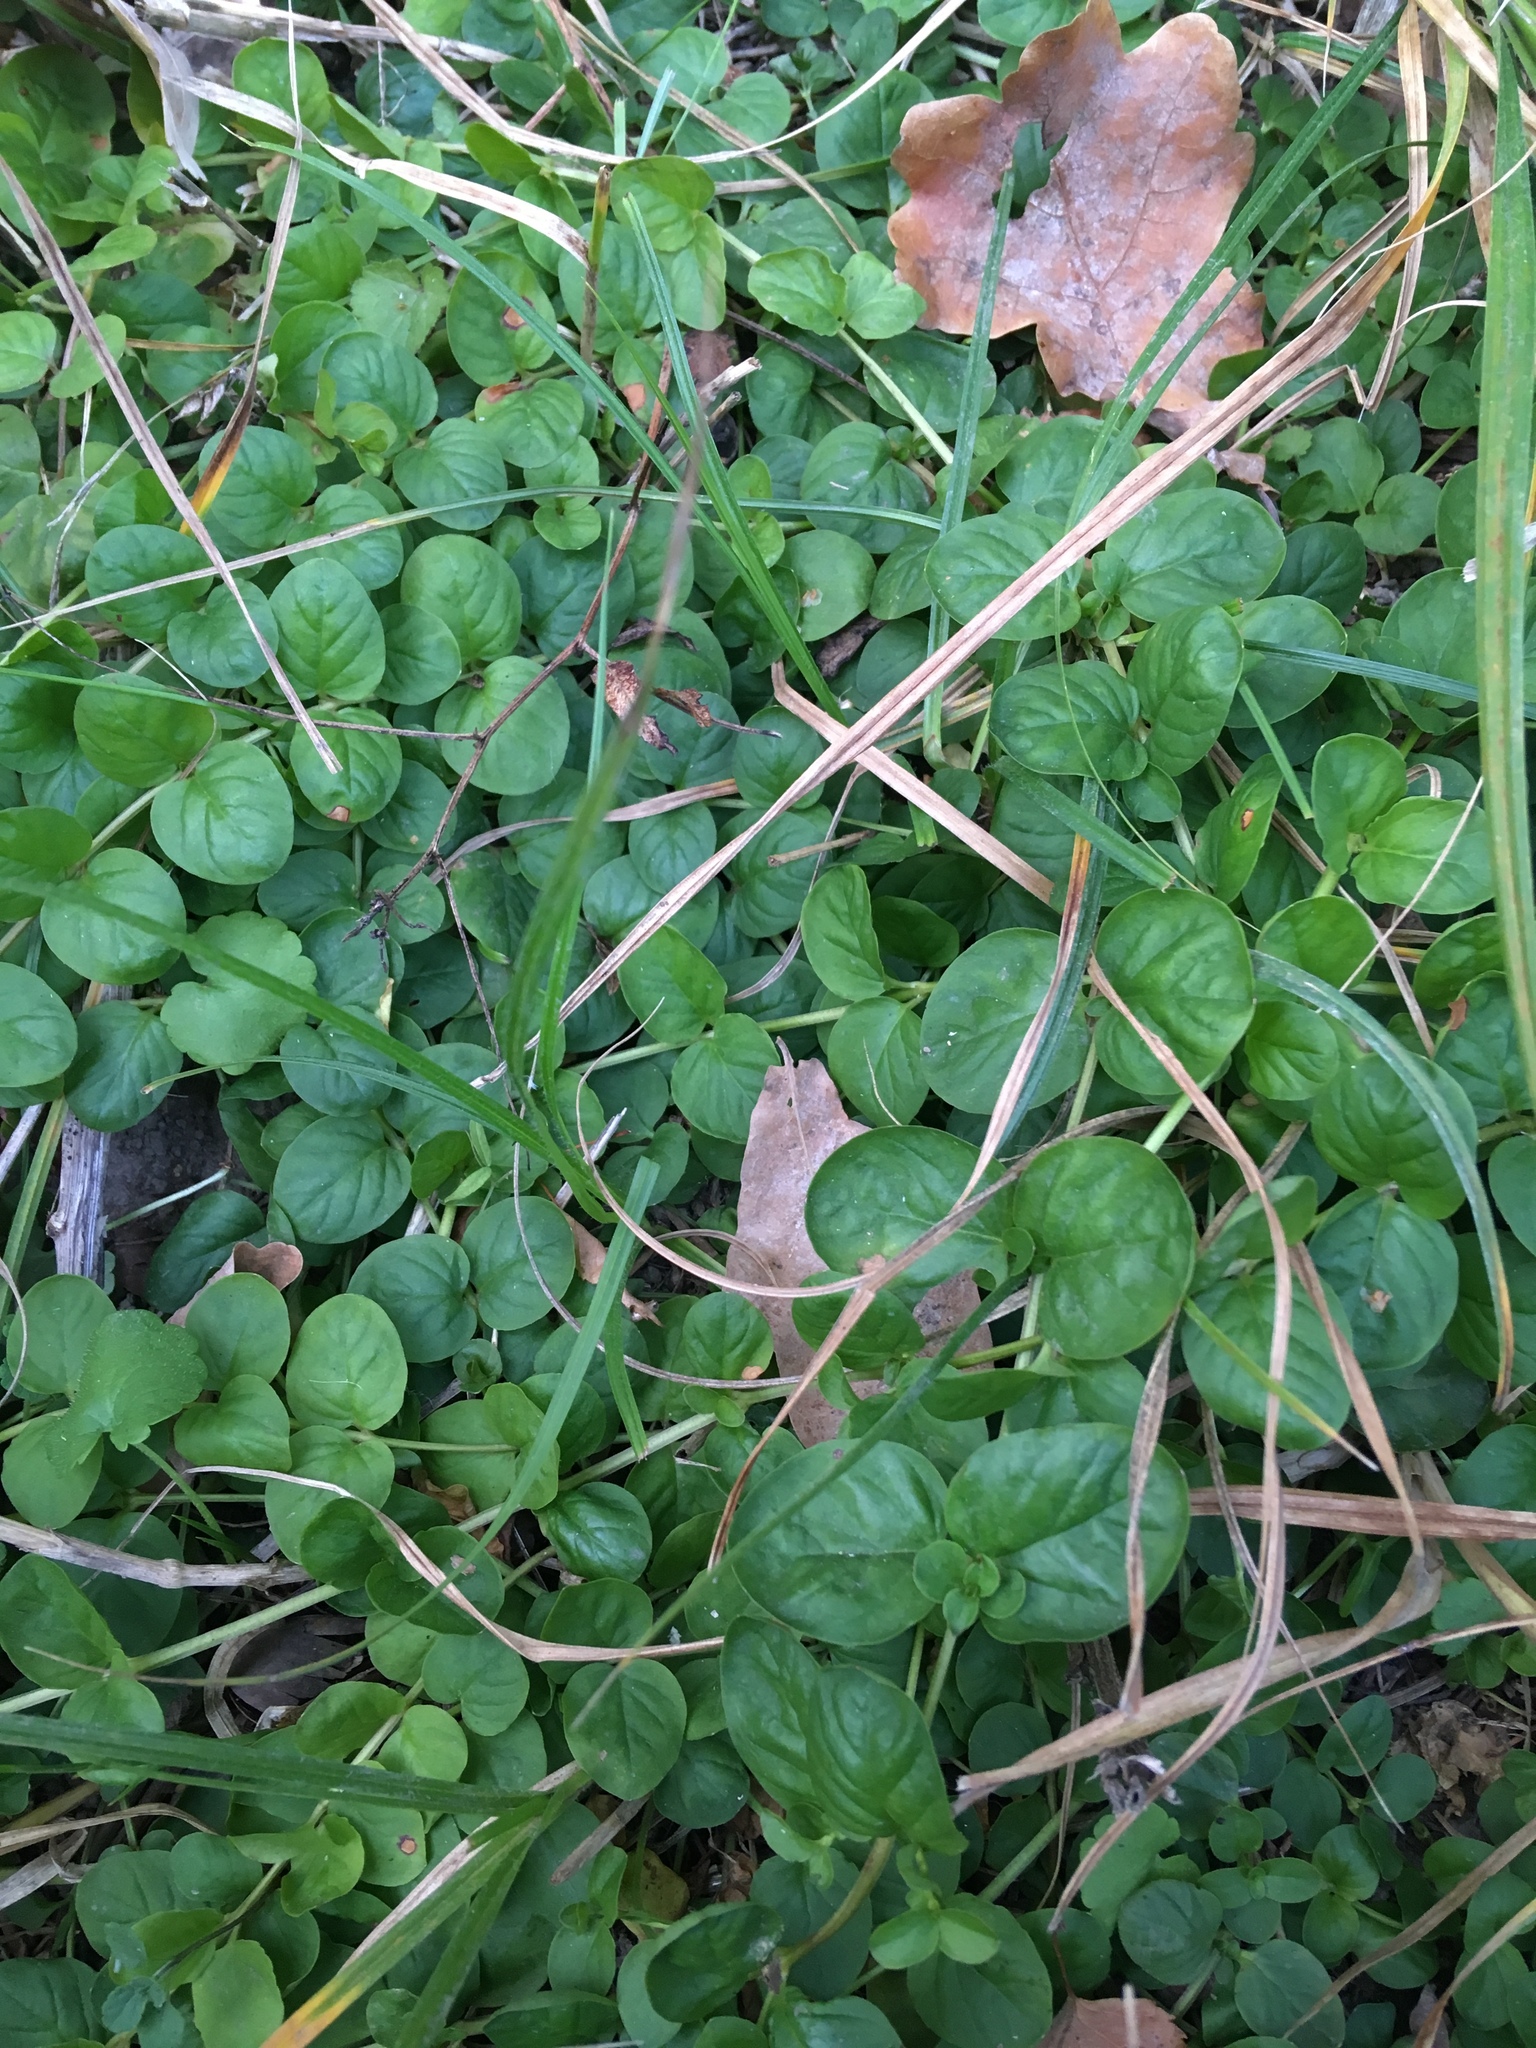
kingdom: Plantae
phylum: Tracheophyta
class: Magnoliopsida
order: Ericales
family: Primulaceae
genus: Lysimachia
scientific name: Lysimachia nummularia
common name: Moneywort
